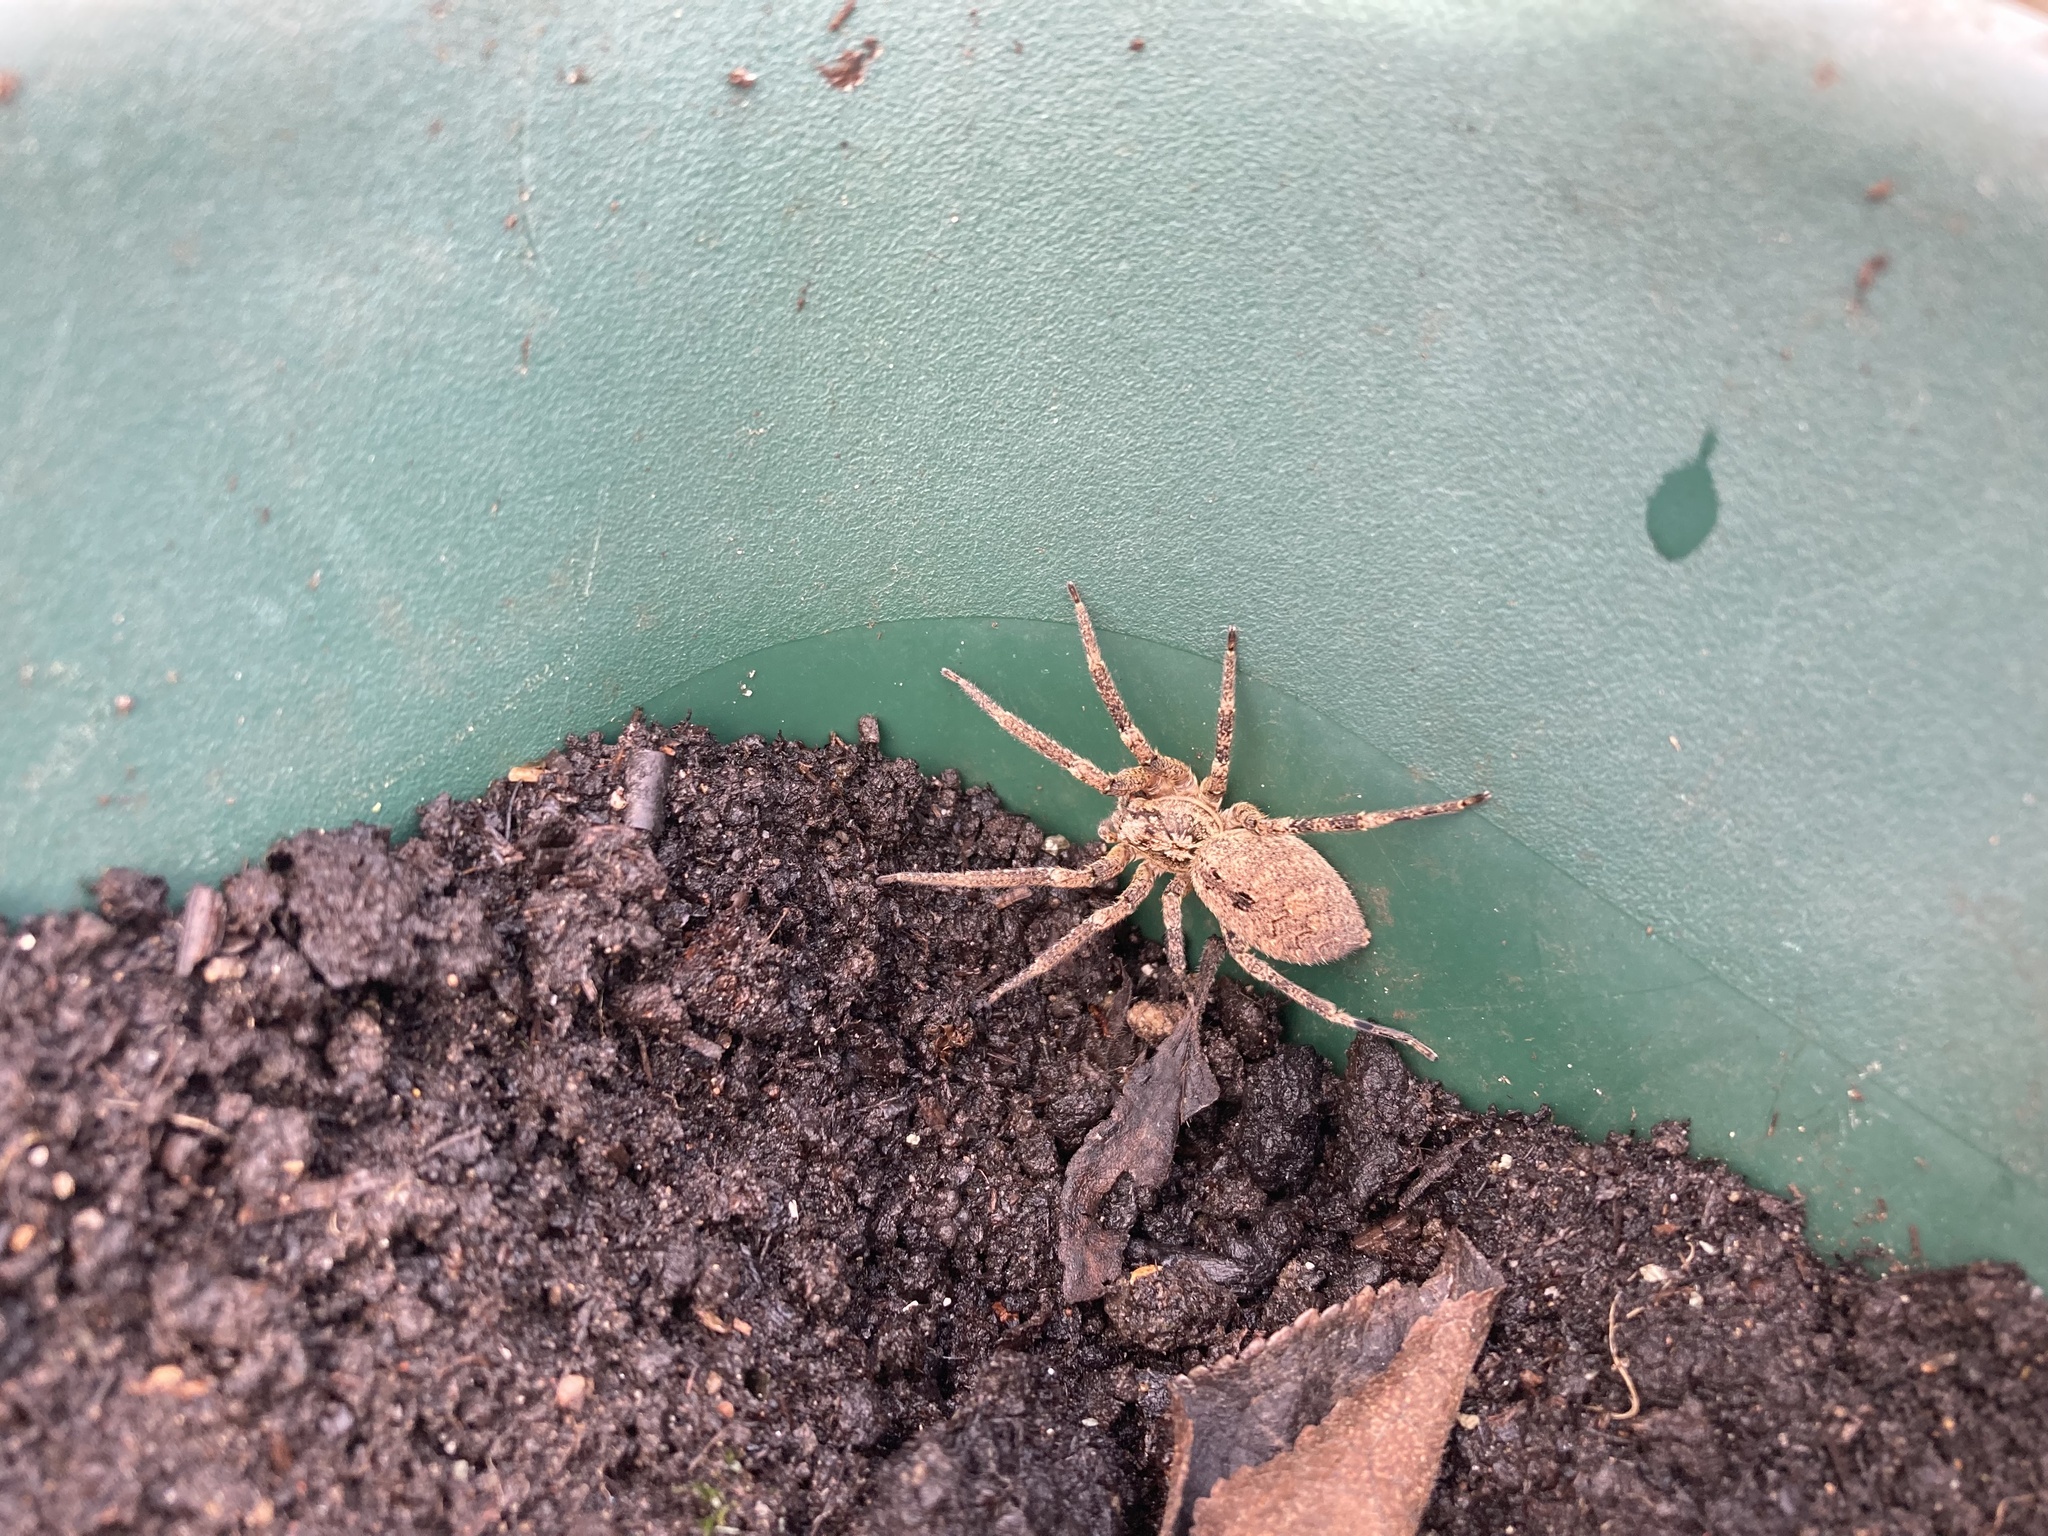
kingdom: Animalia
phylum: Arthropoda
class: Arachnida
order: Araneae
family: Zoropsidae
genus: Zoropsis
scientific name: Zoropsis spinimana
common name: Zoropsid spider
